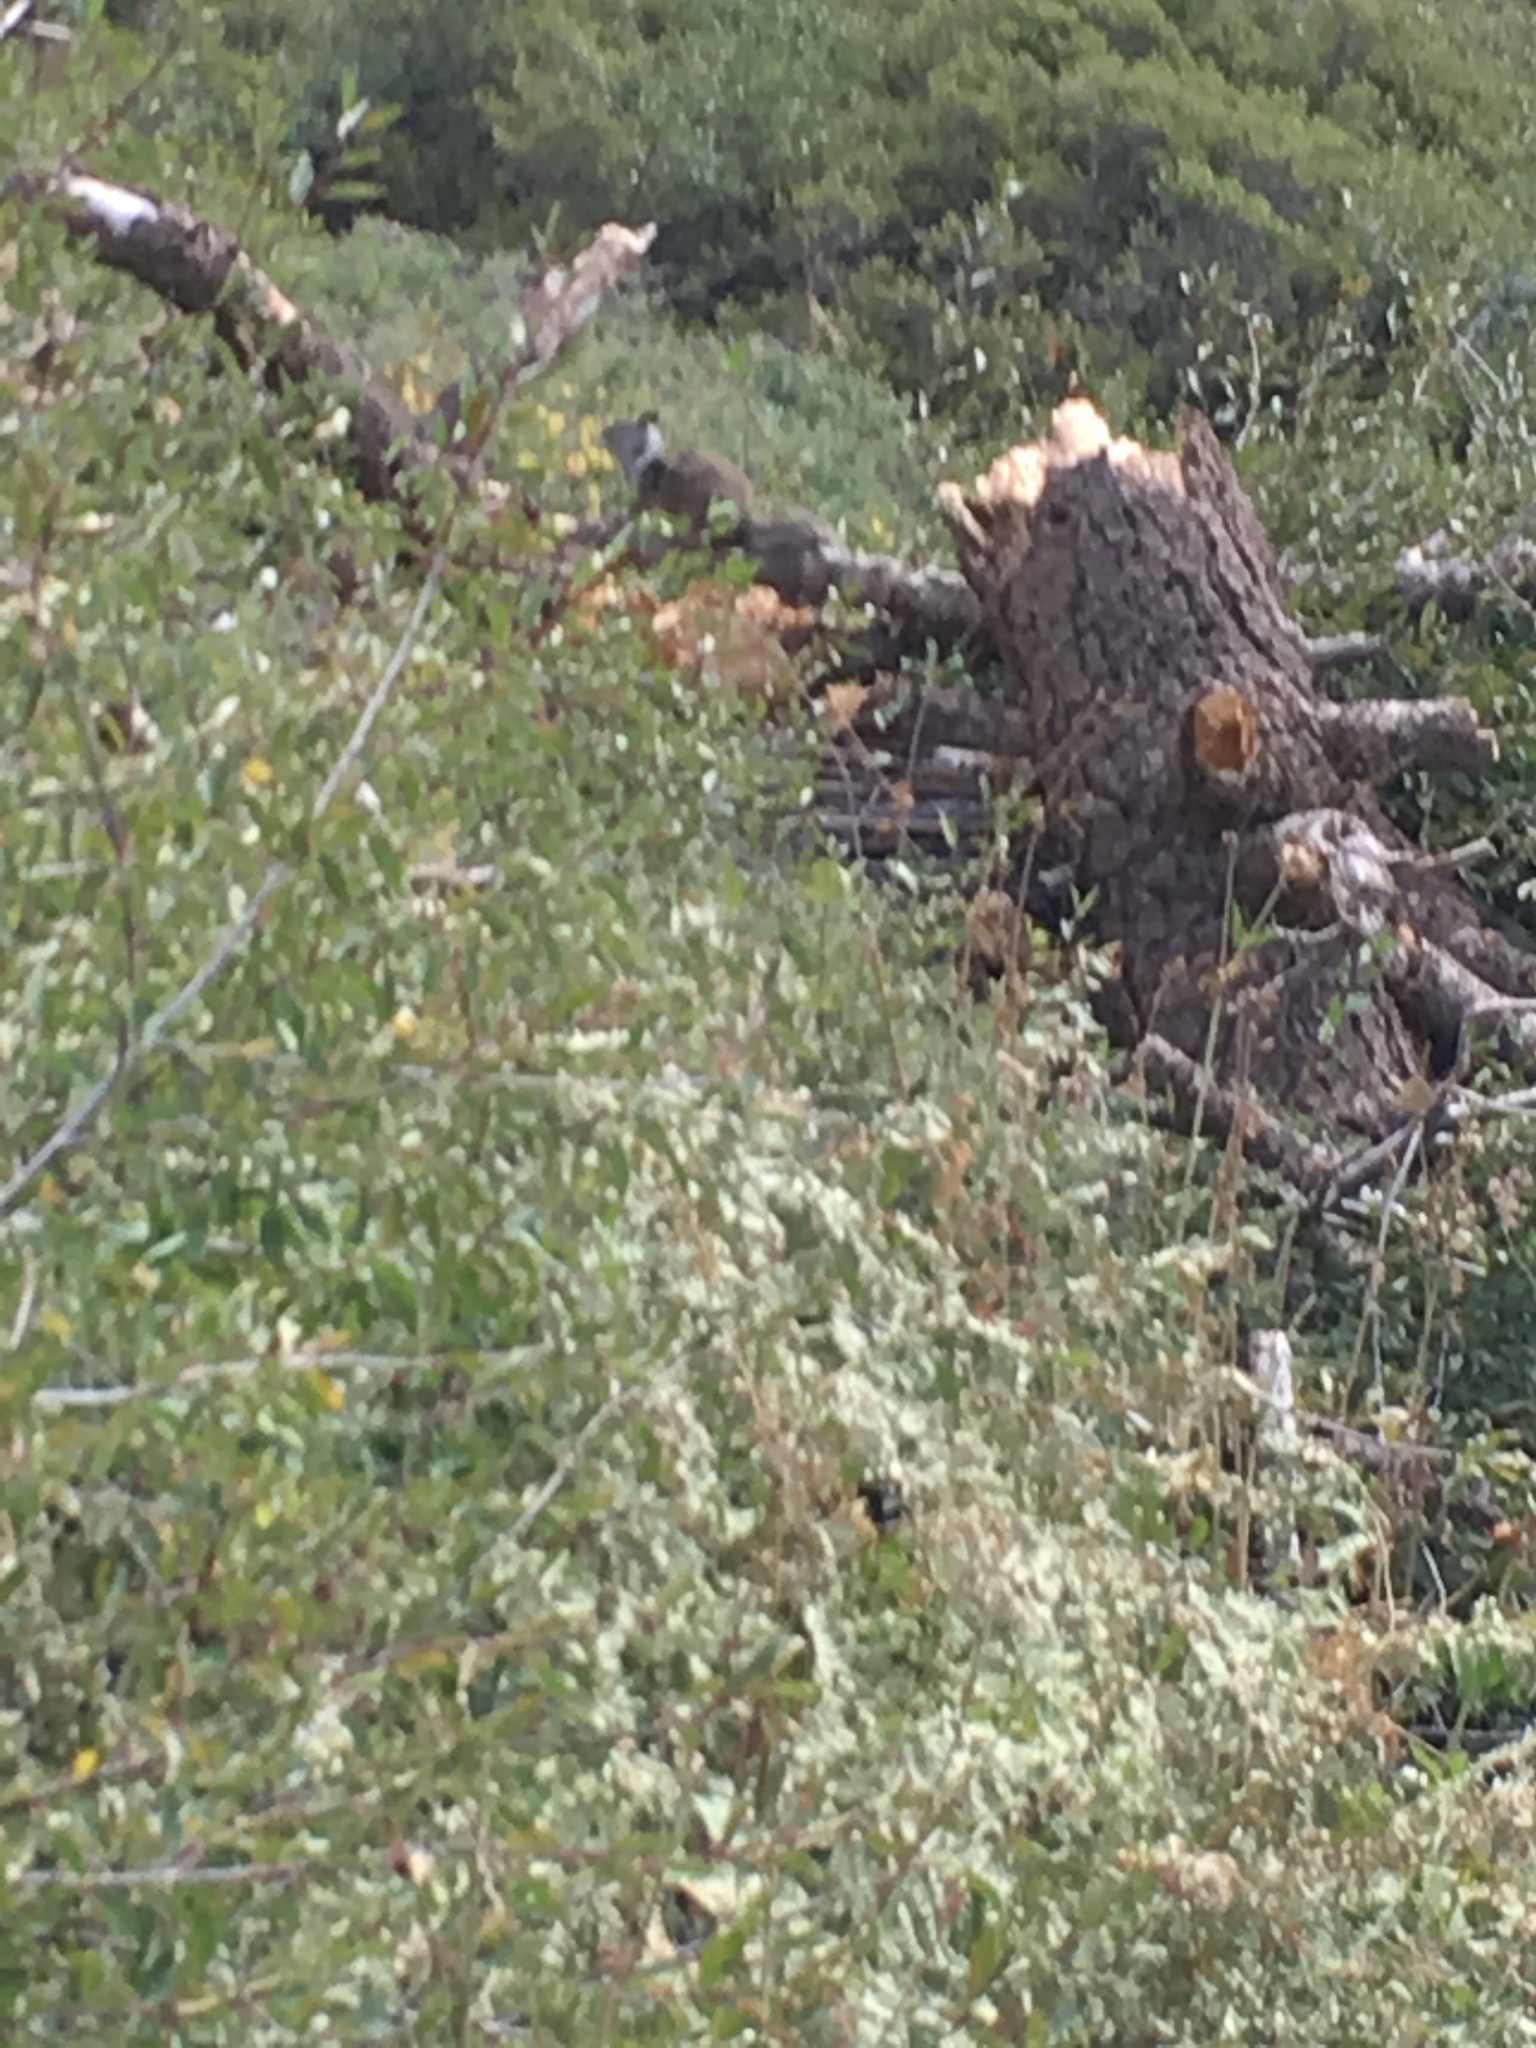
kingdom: Animalia
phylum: Chordata
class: Mammalia
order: Rodentia
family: Sciuridae
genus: Otospermophilus
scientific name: Otospermophilus beecheyi
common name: California ground squirrel
